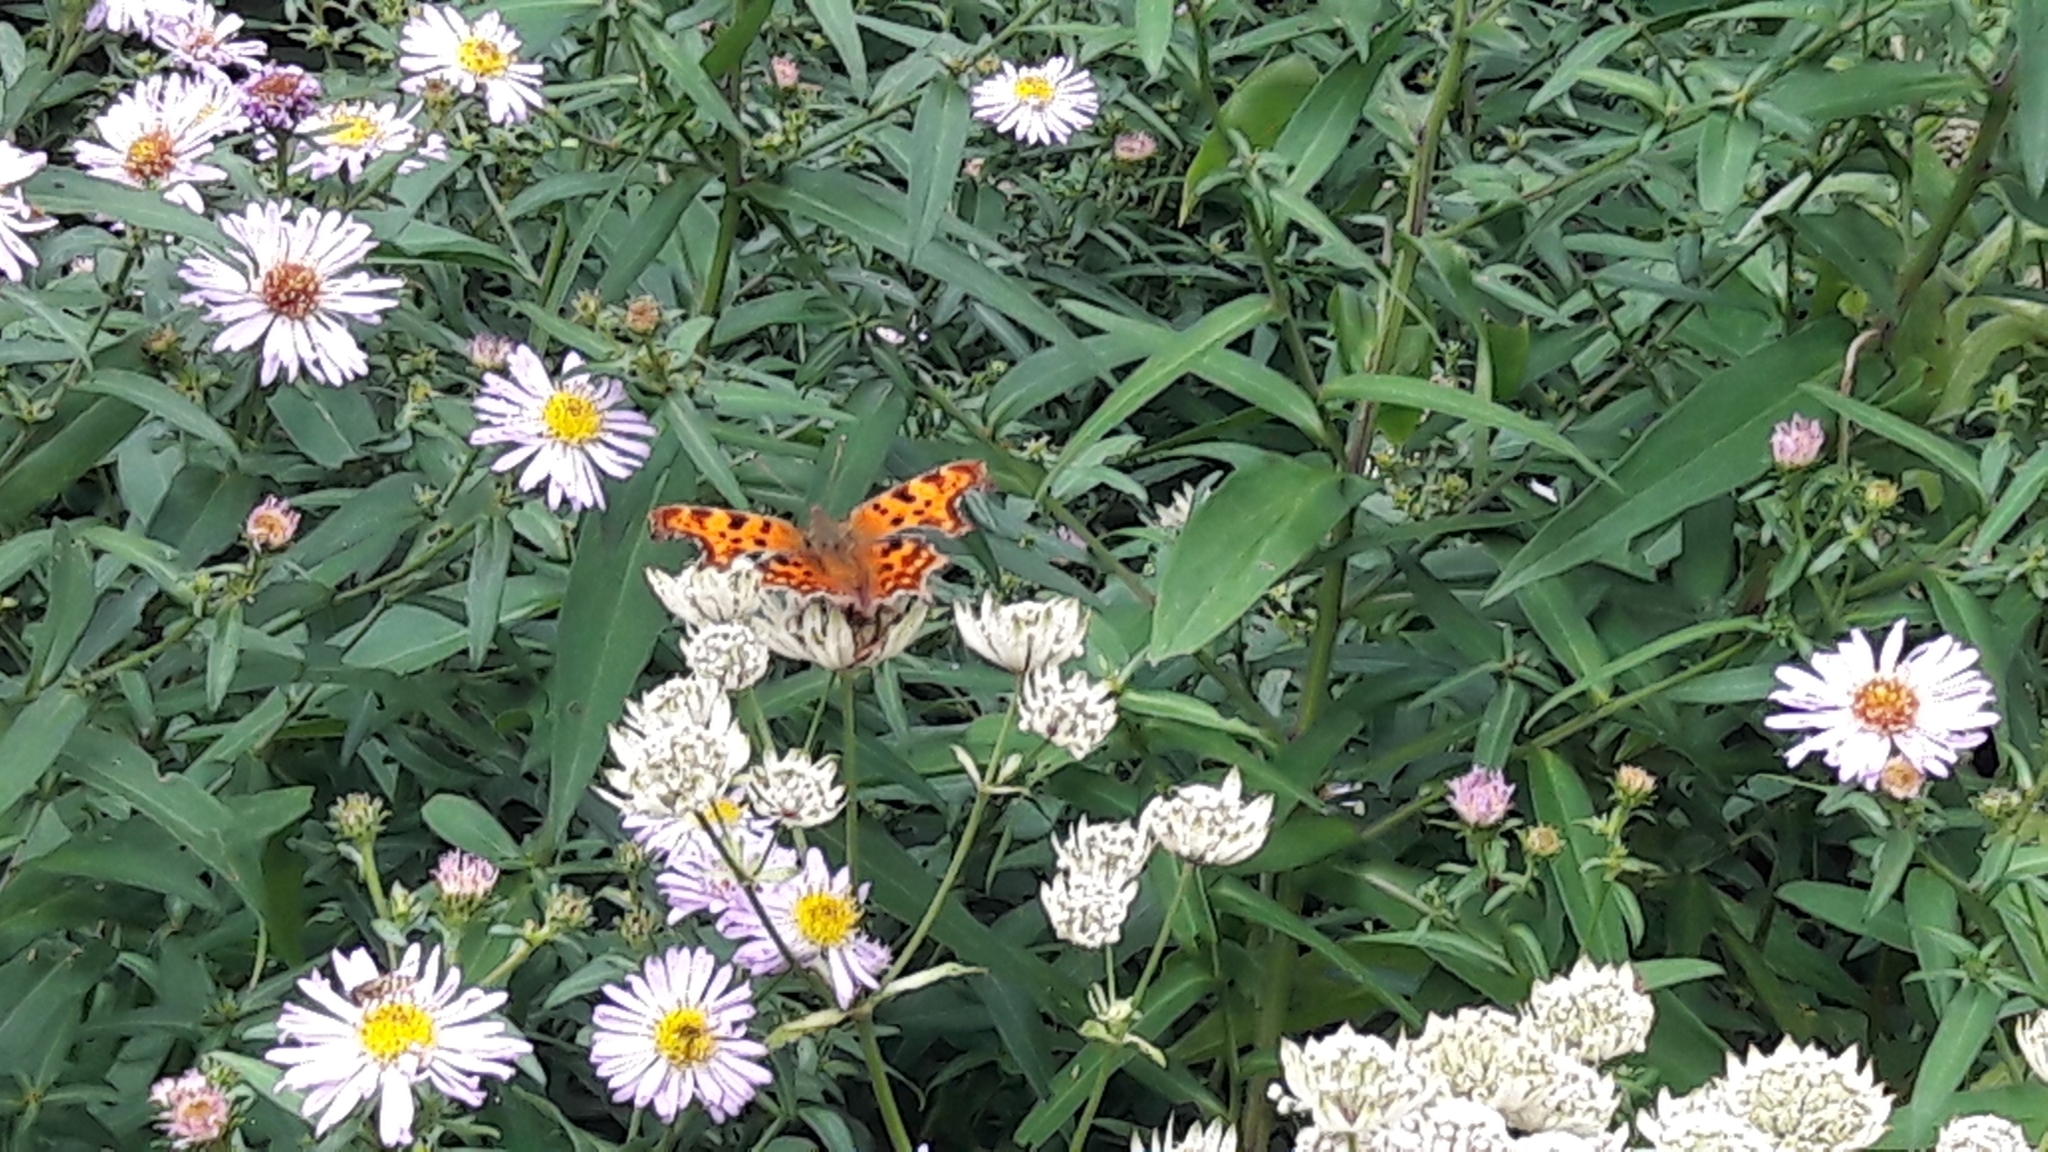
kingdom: Animalia
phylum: Arthropoda
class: Insecta
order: Lepidoptera
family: Nymphalidae
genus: Polygonia
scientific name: Polygonia c-album
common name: Comma
